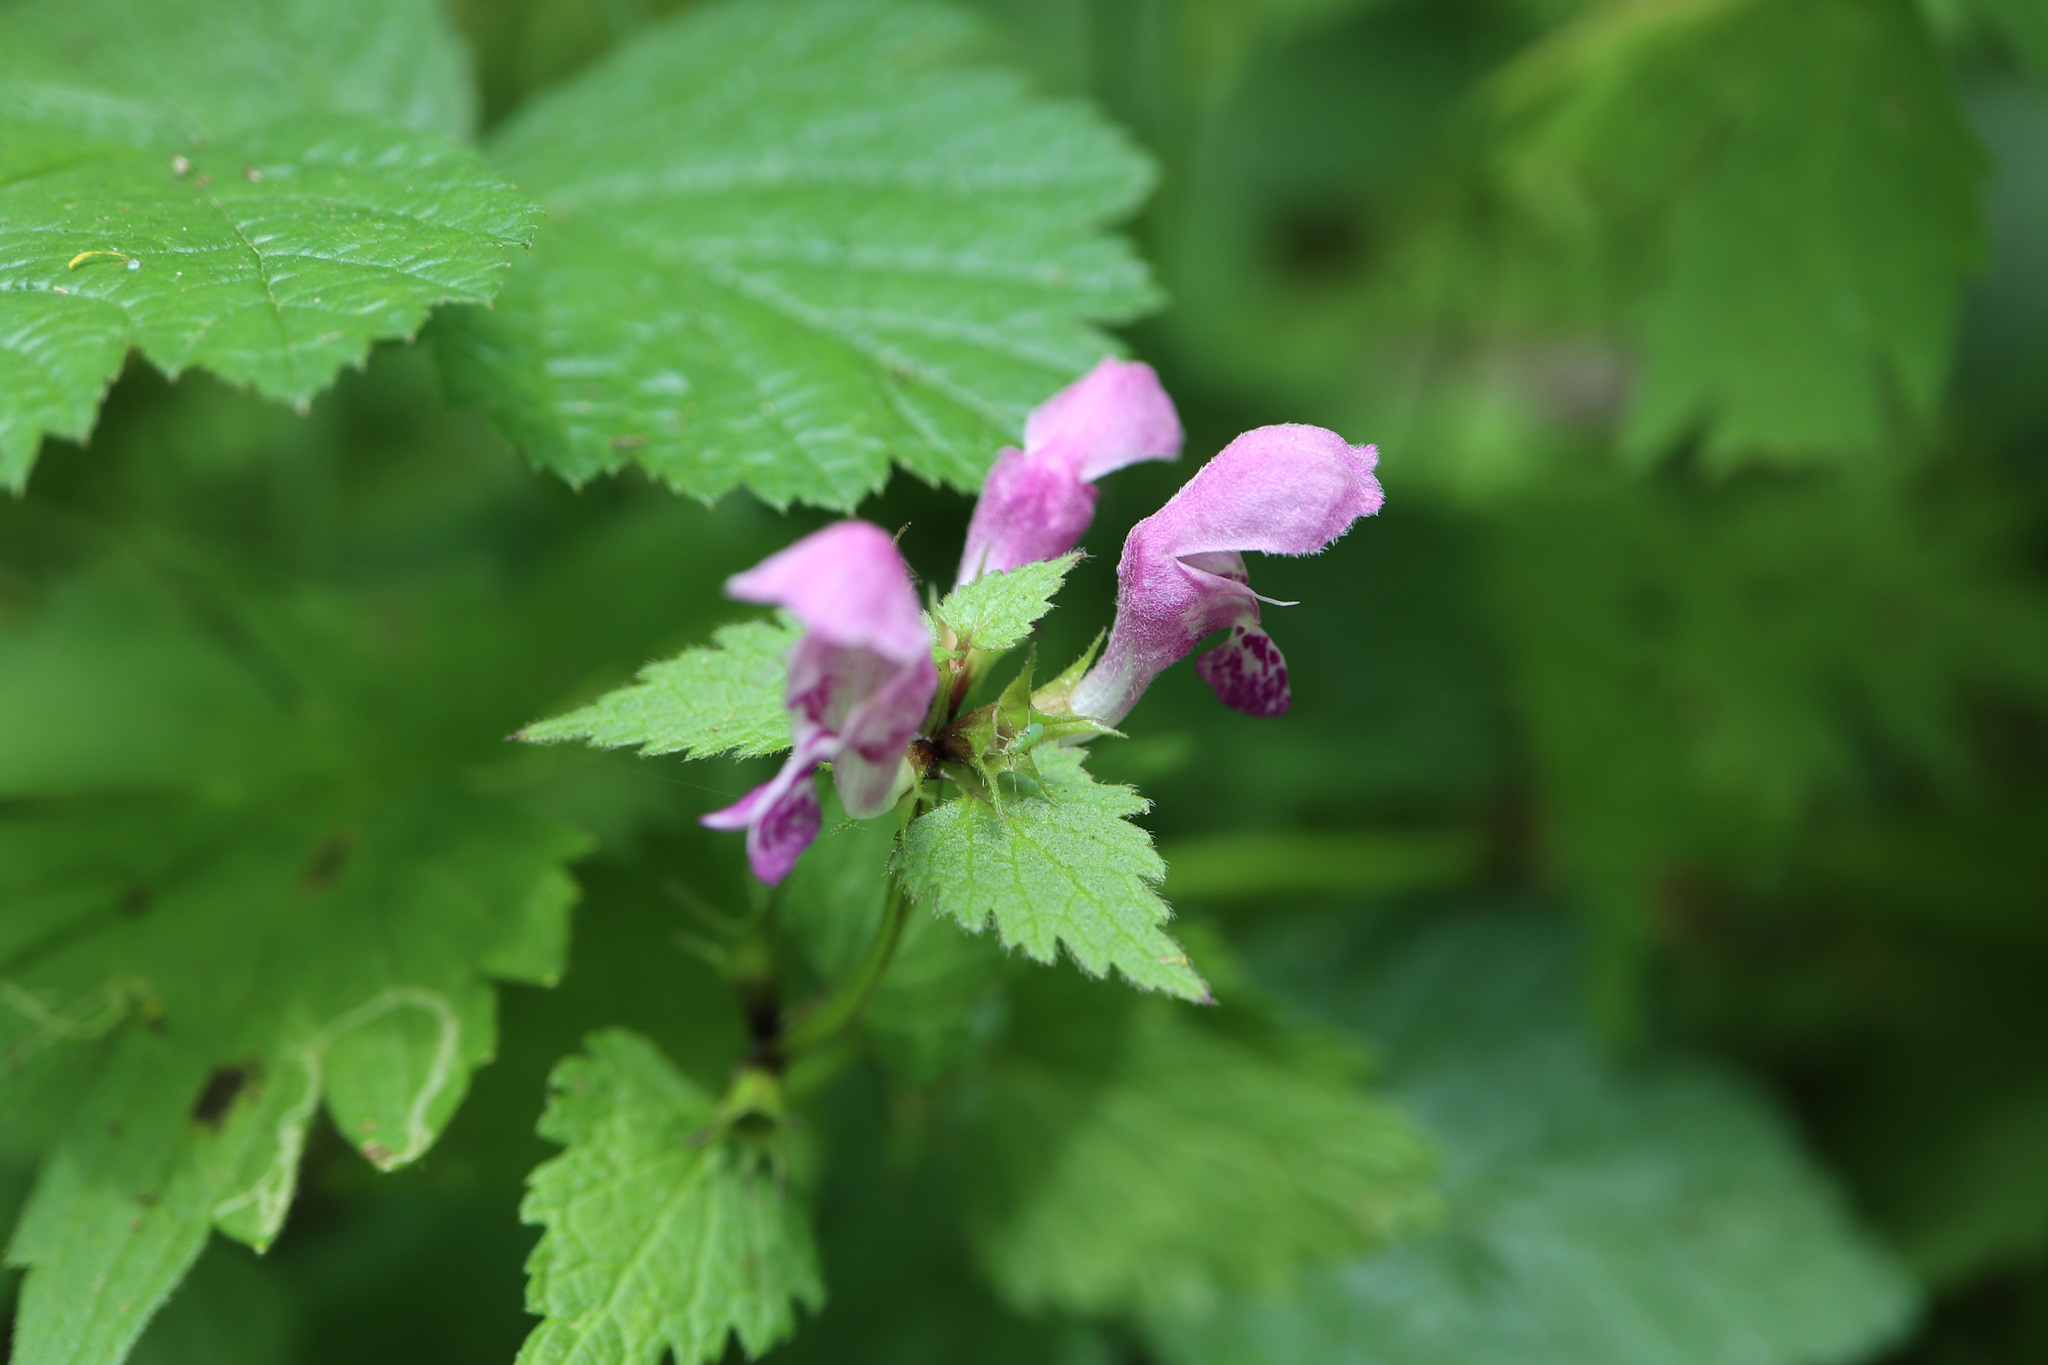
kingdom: Plantae
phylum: Tracheophyta
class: Magnoliopsida
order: Lamiales
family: Lamiaceae
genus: Lamium
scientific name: Lamium maculatum
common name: Spotted dead-nettle
